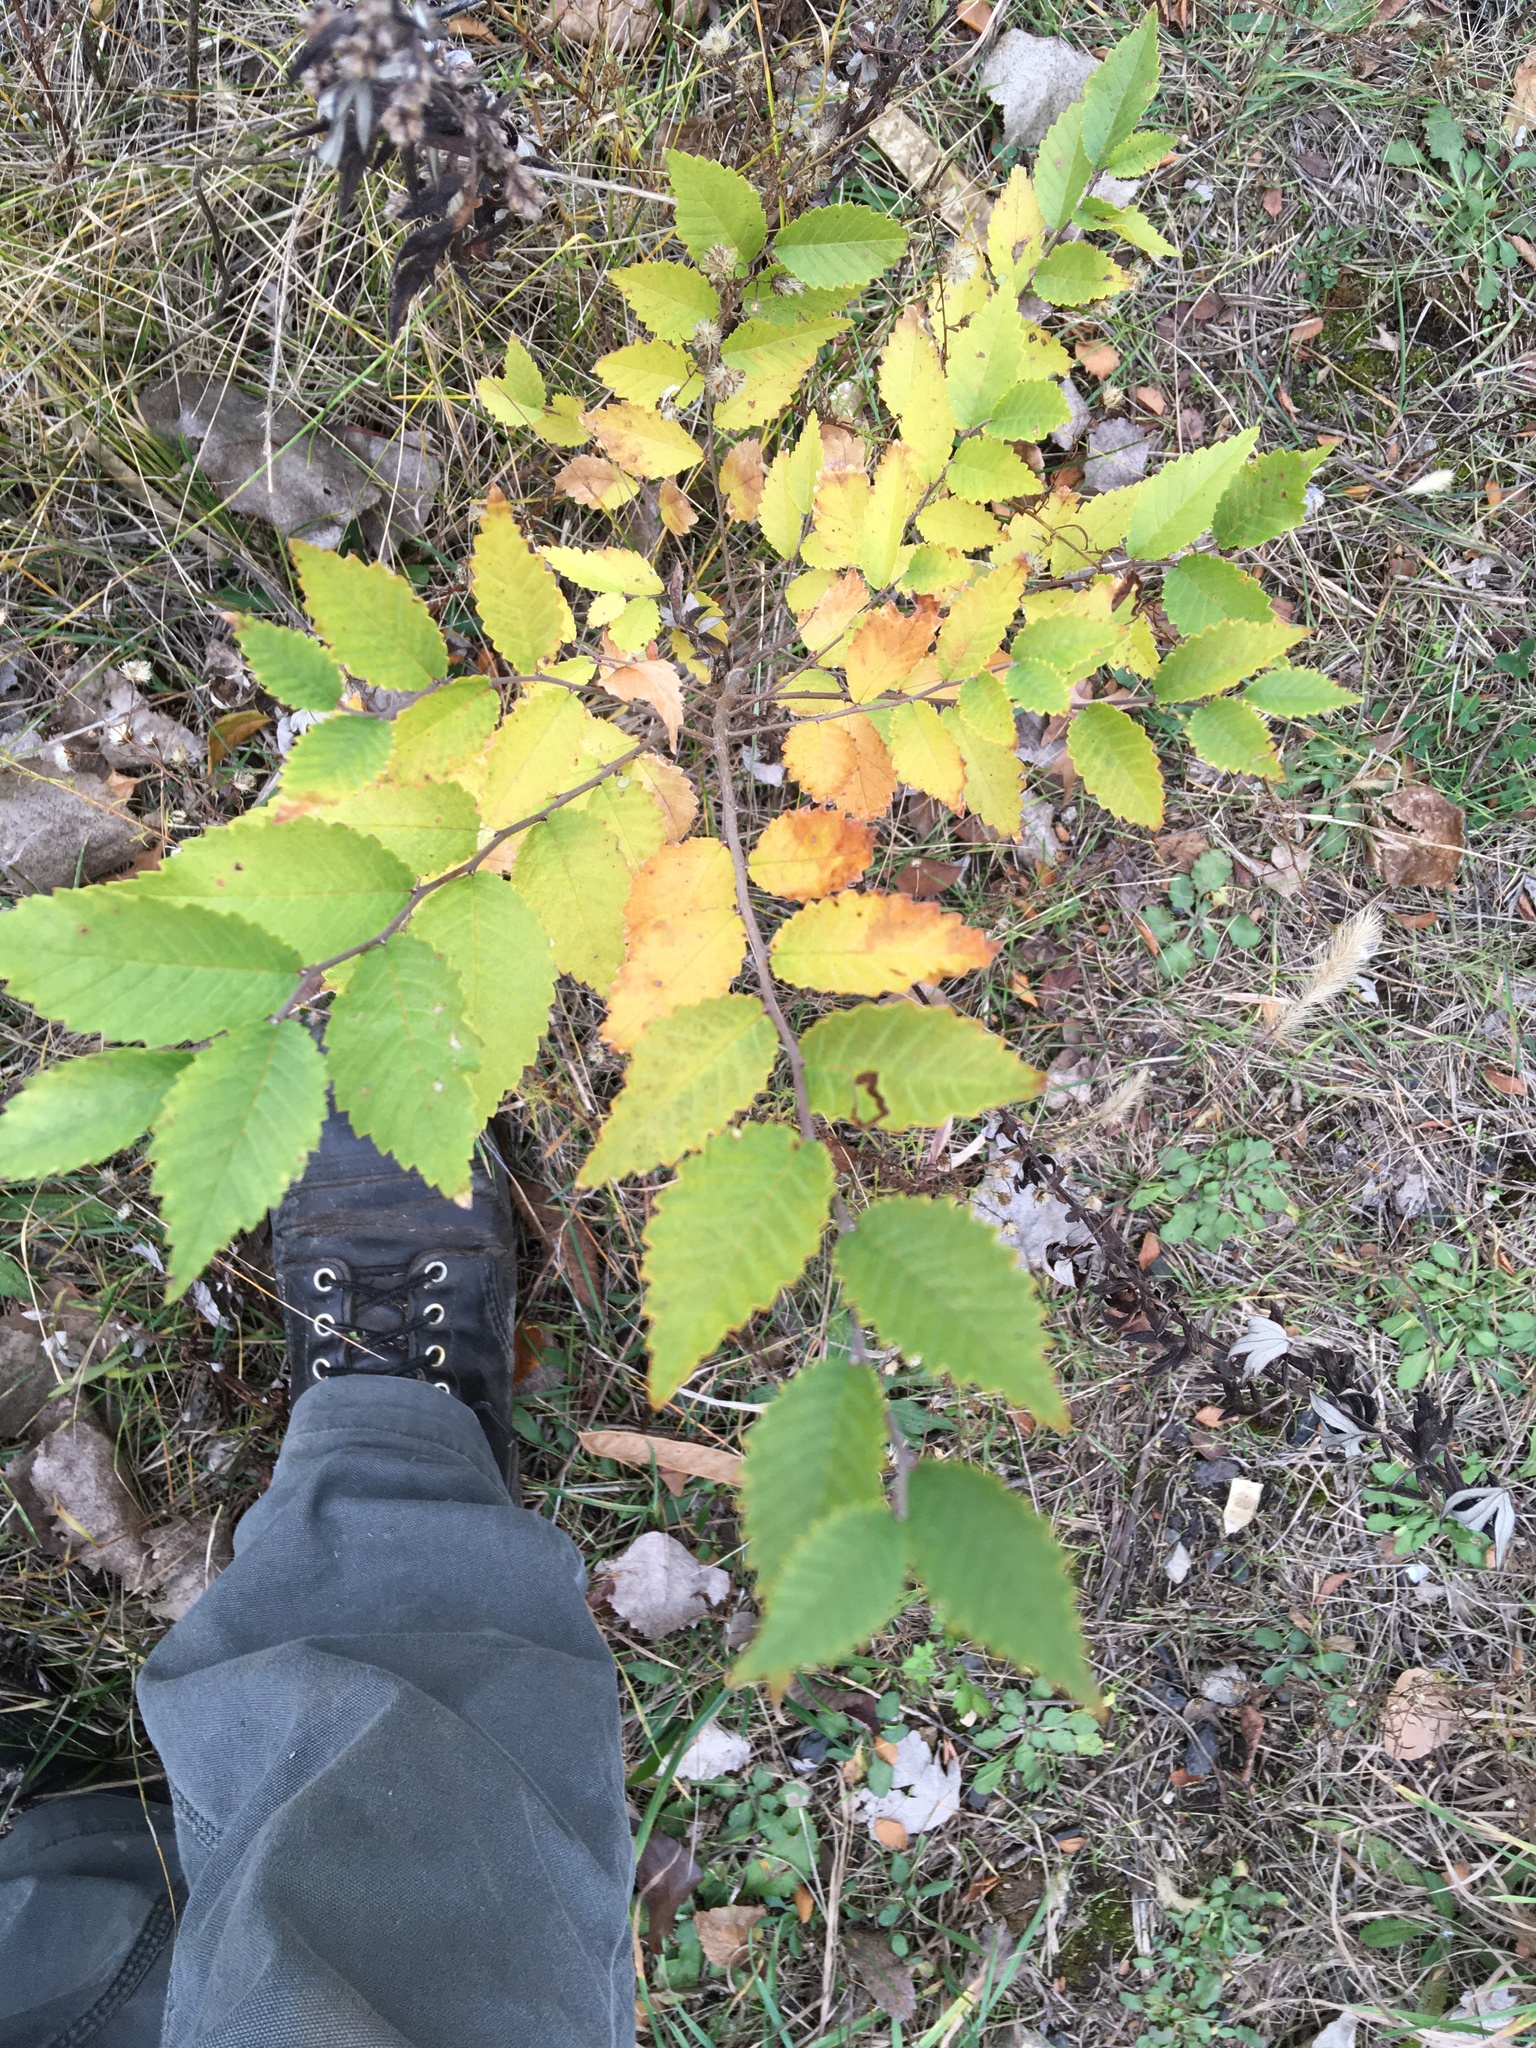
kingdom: Plantae
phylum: Tracheophyta
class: Magnoliopsida
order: Rosales
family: Ulmaceae
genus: Ulmus
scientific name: Ulmus pumila
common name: Siberian elm
